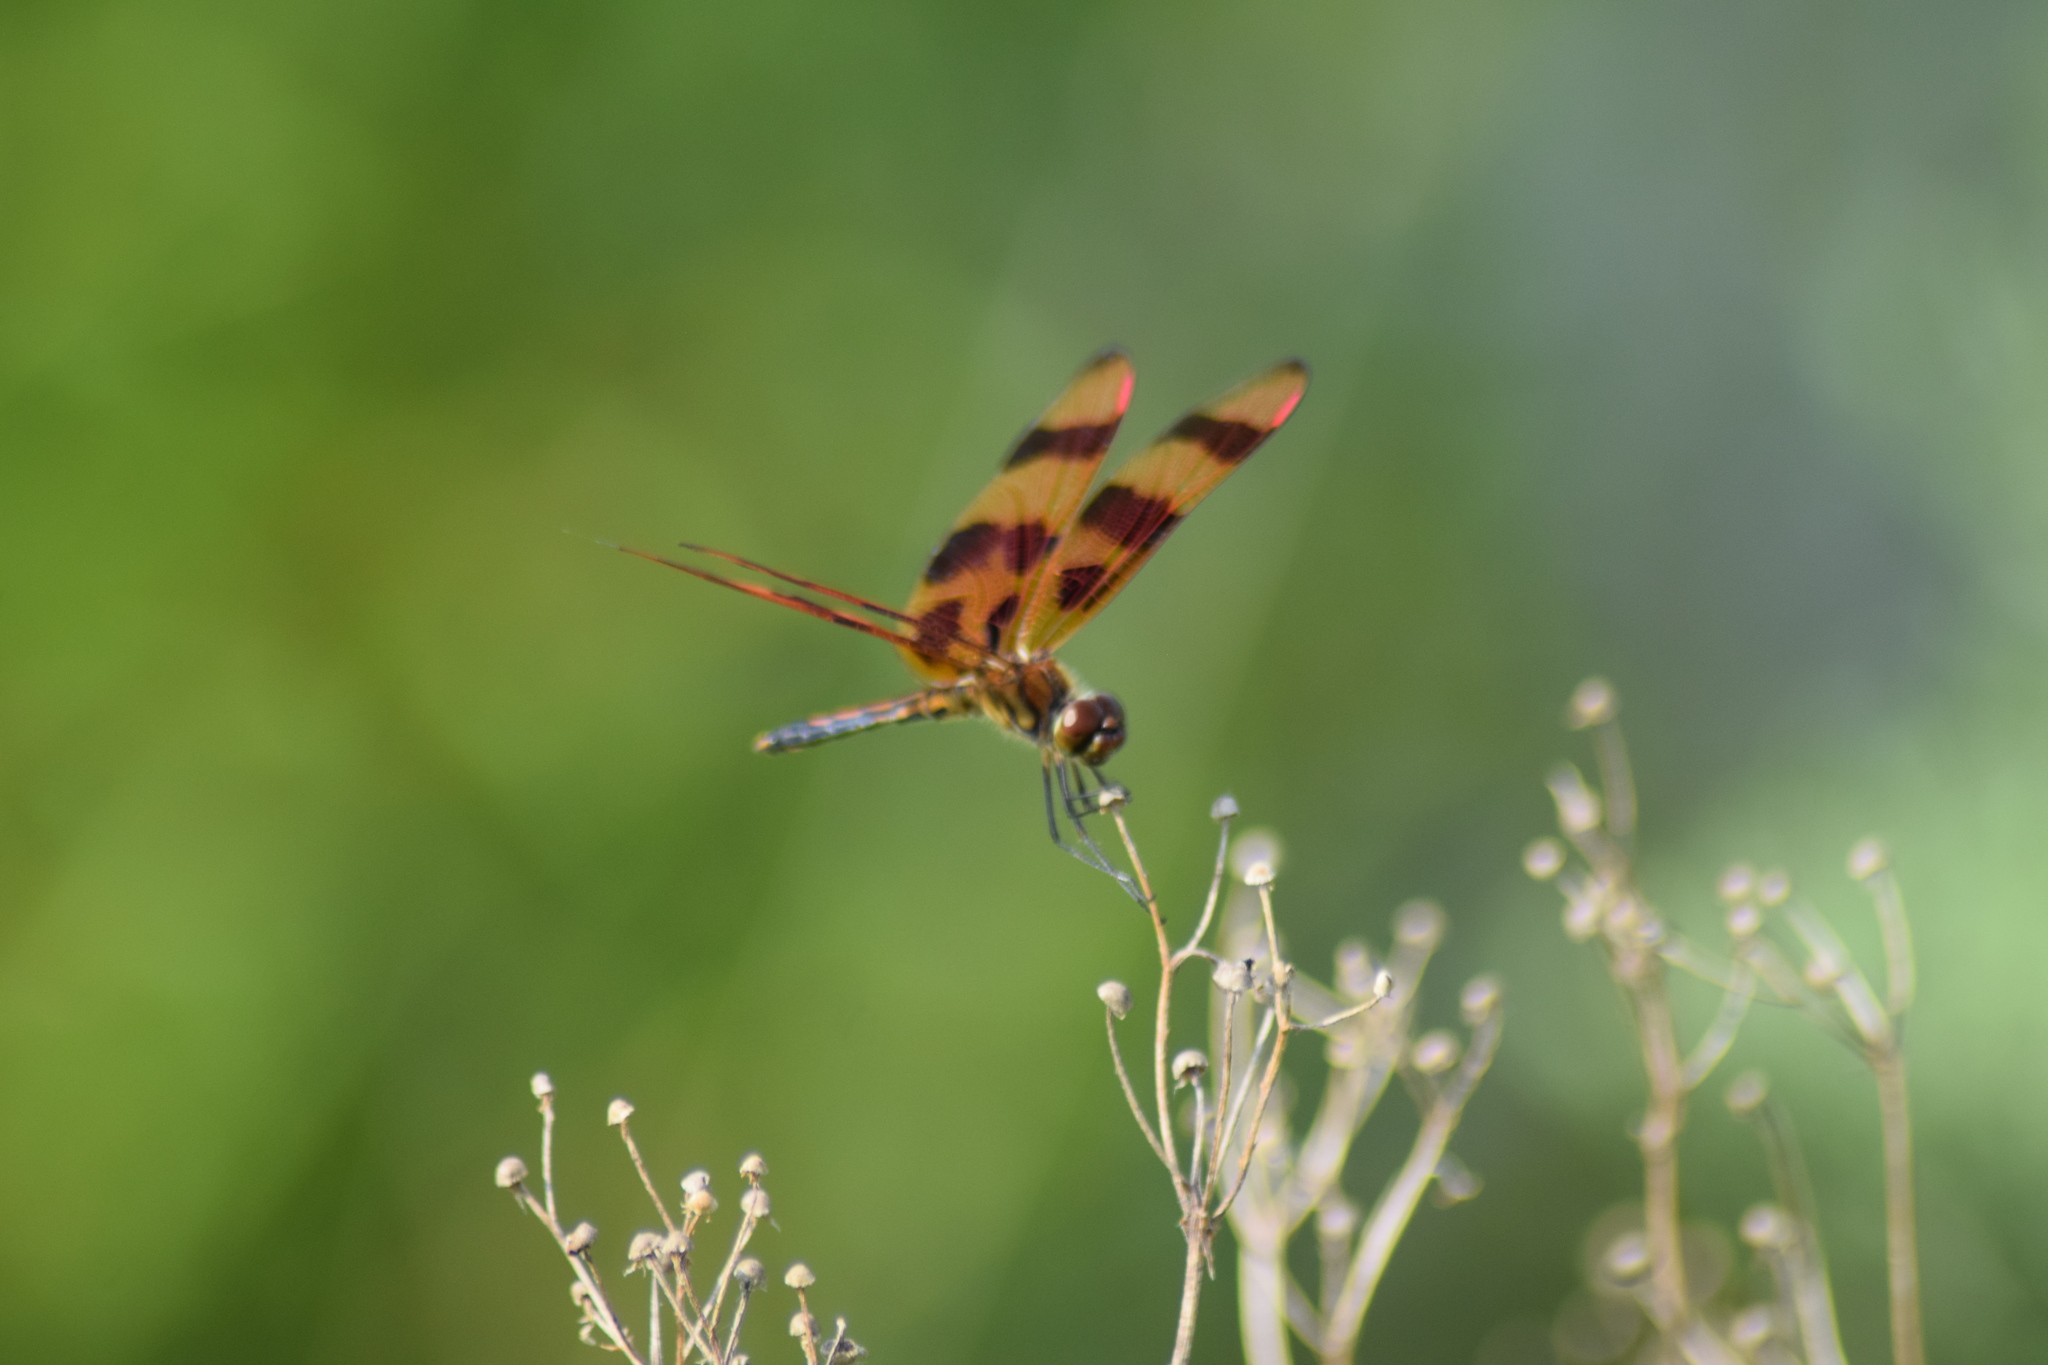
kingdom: Animalia
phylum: Arthropoda
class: Insecta
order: Odonata
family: Libellulidae
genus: Celithemis
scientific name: Celithemis eponina
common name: Halloween pennant
